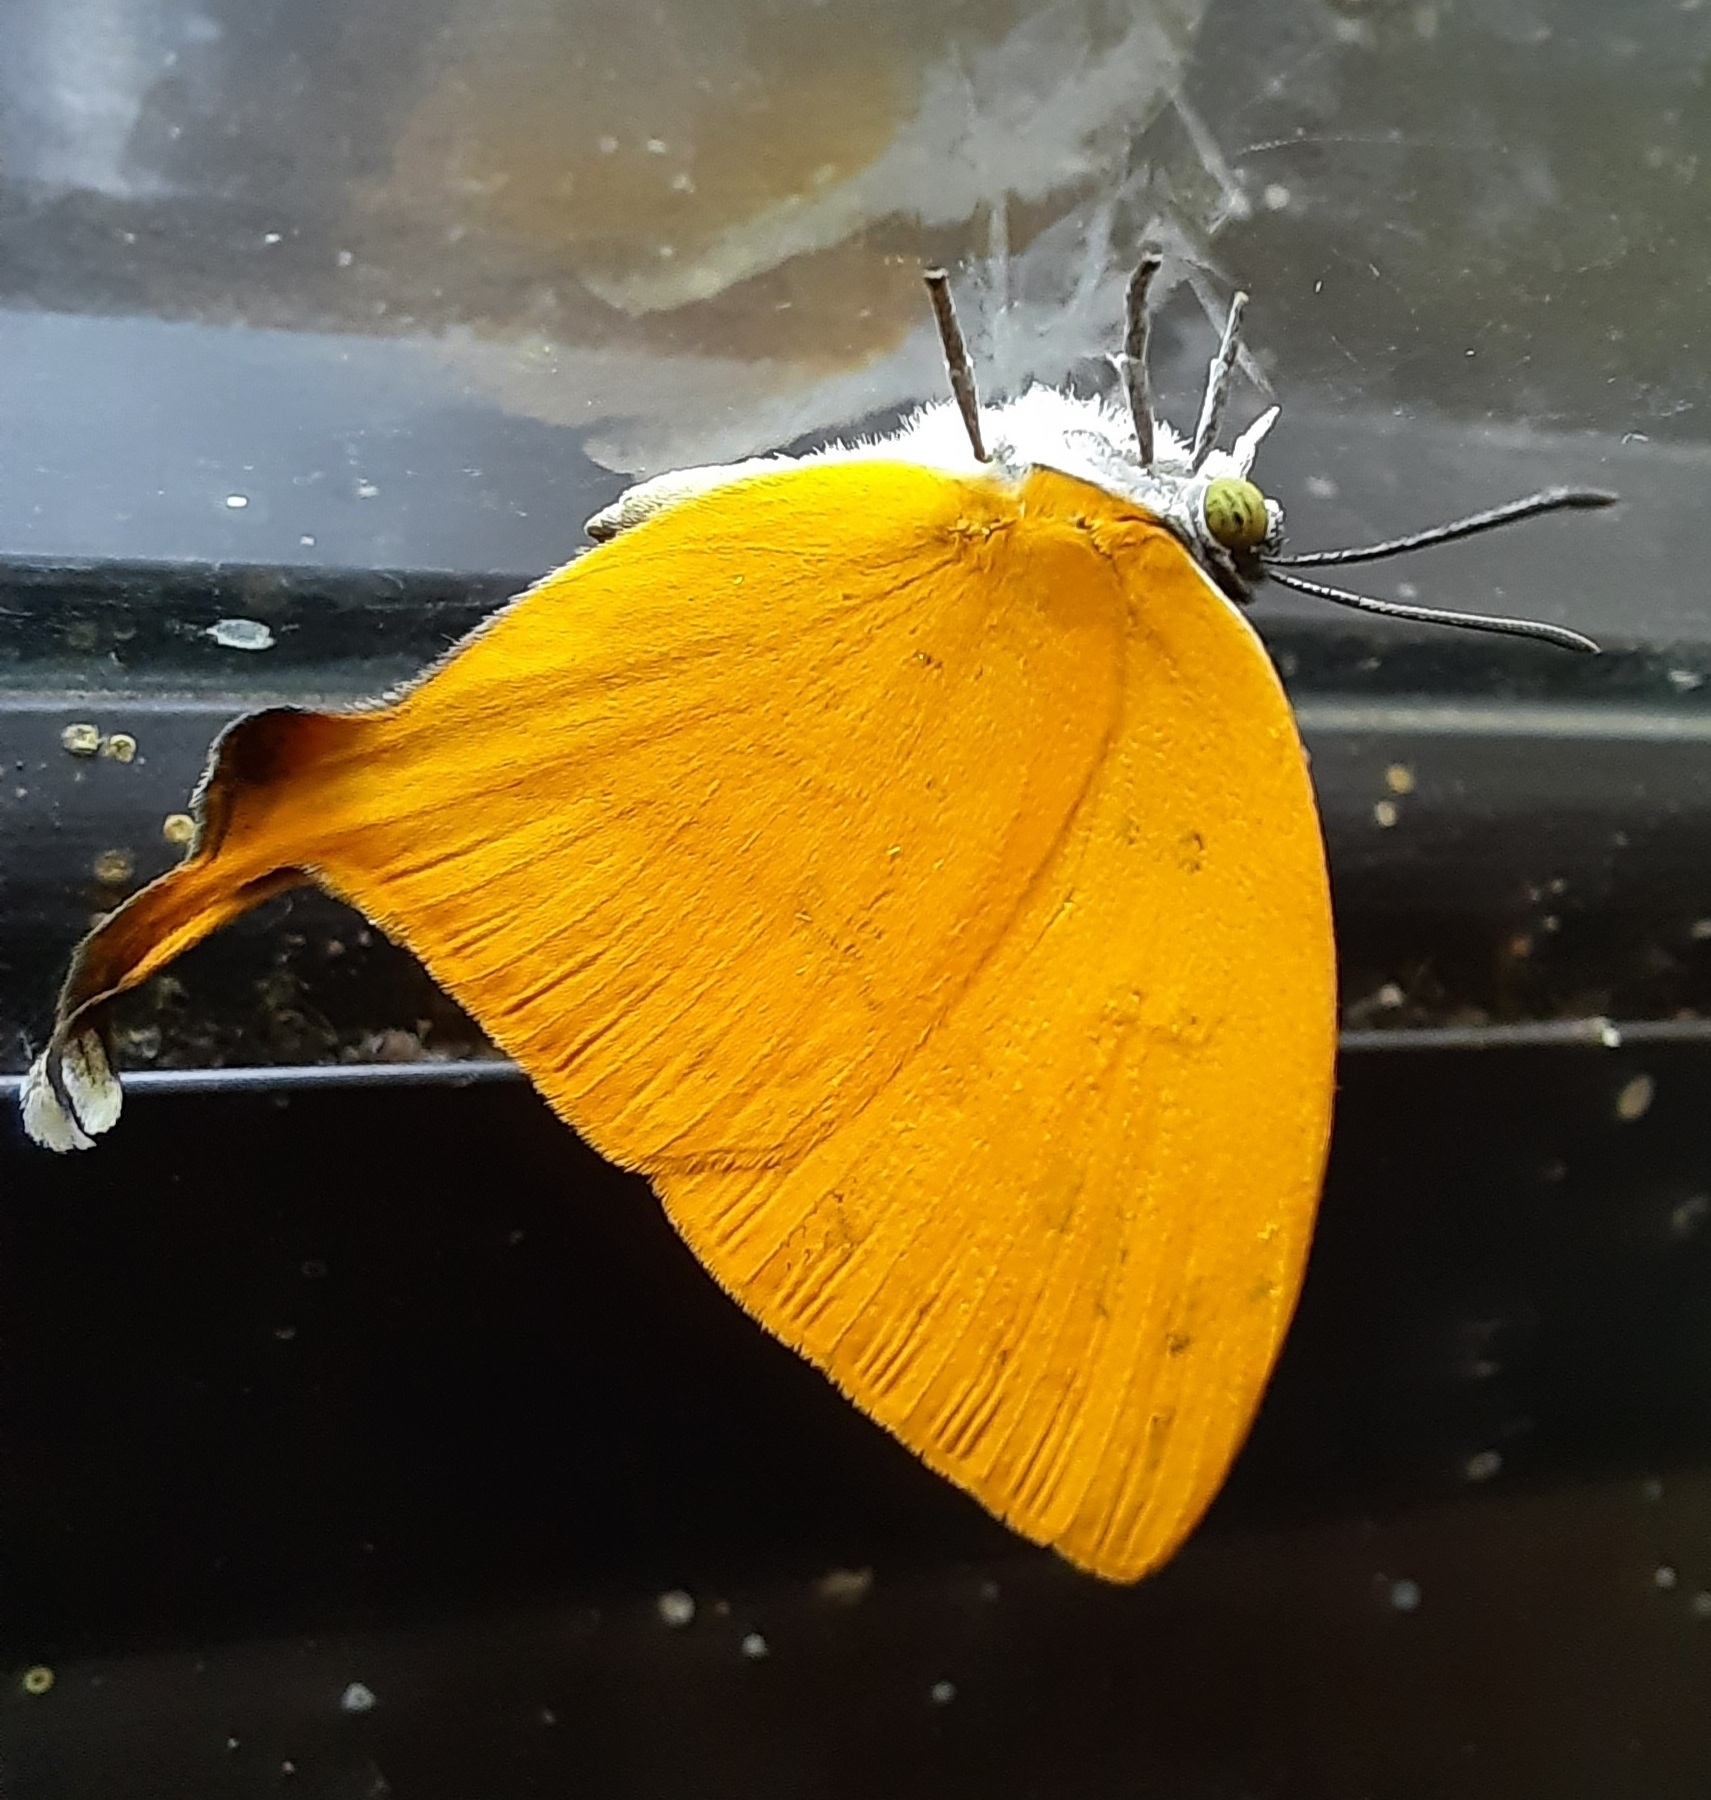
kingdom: Animalia
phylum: Arthropoda
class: Insecta
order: Lepidoptera
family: Lycaenidae
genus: Loxura
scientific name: Loxura atymnus
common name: Common yamfly
